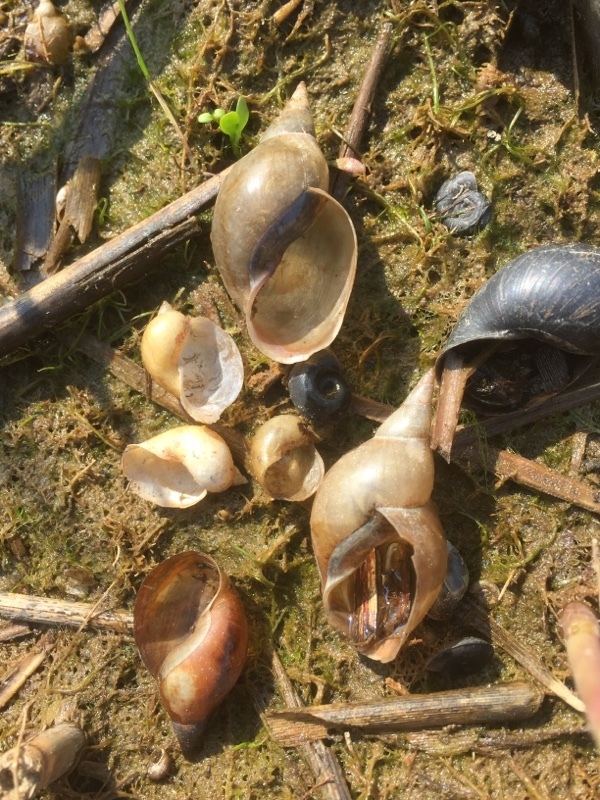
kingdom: Animalia
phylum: Mollusca
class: Gastropoda
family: Lymnaeidae
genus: Lymnaea
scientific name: Lymnaea stagnalis
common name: Great pond snail
